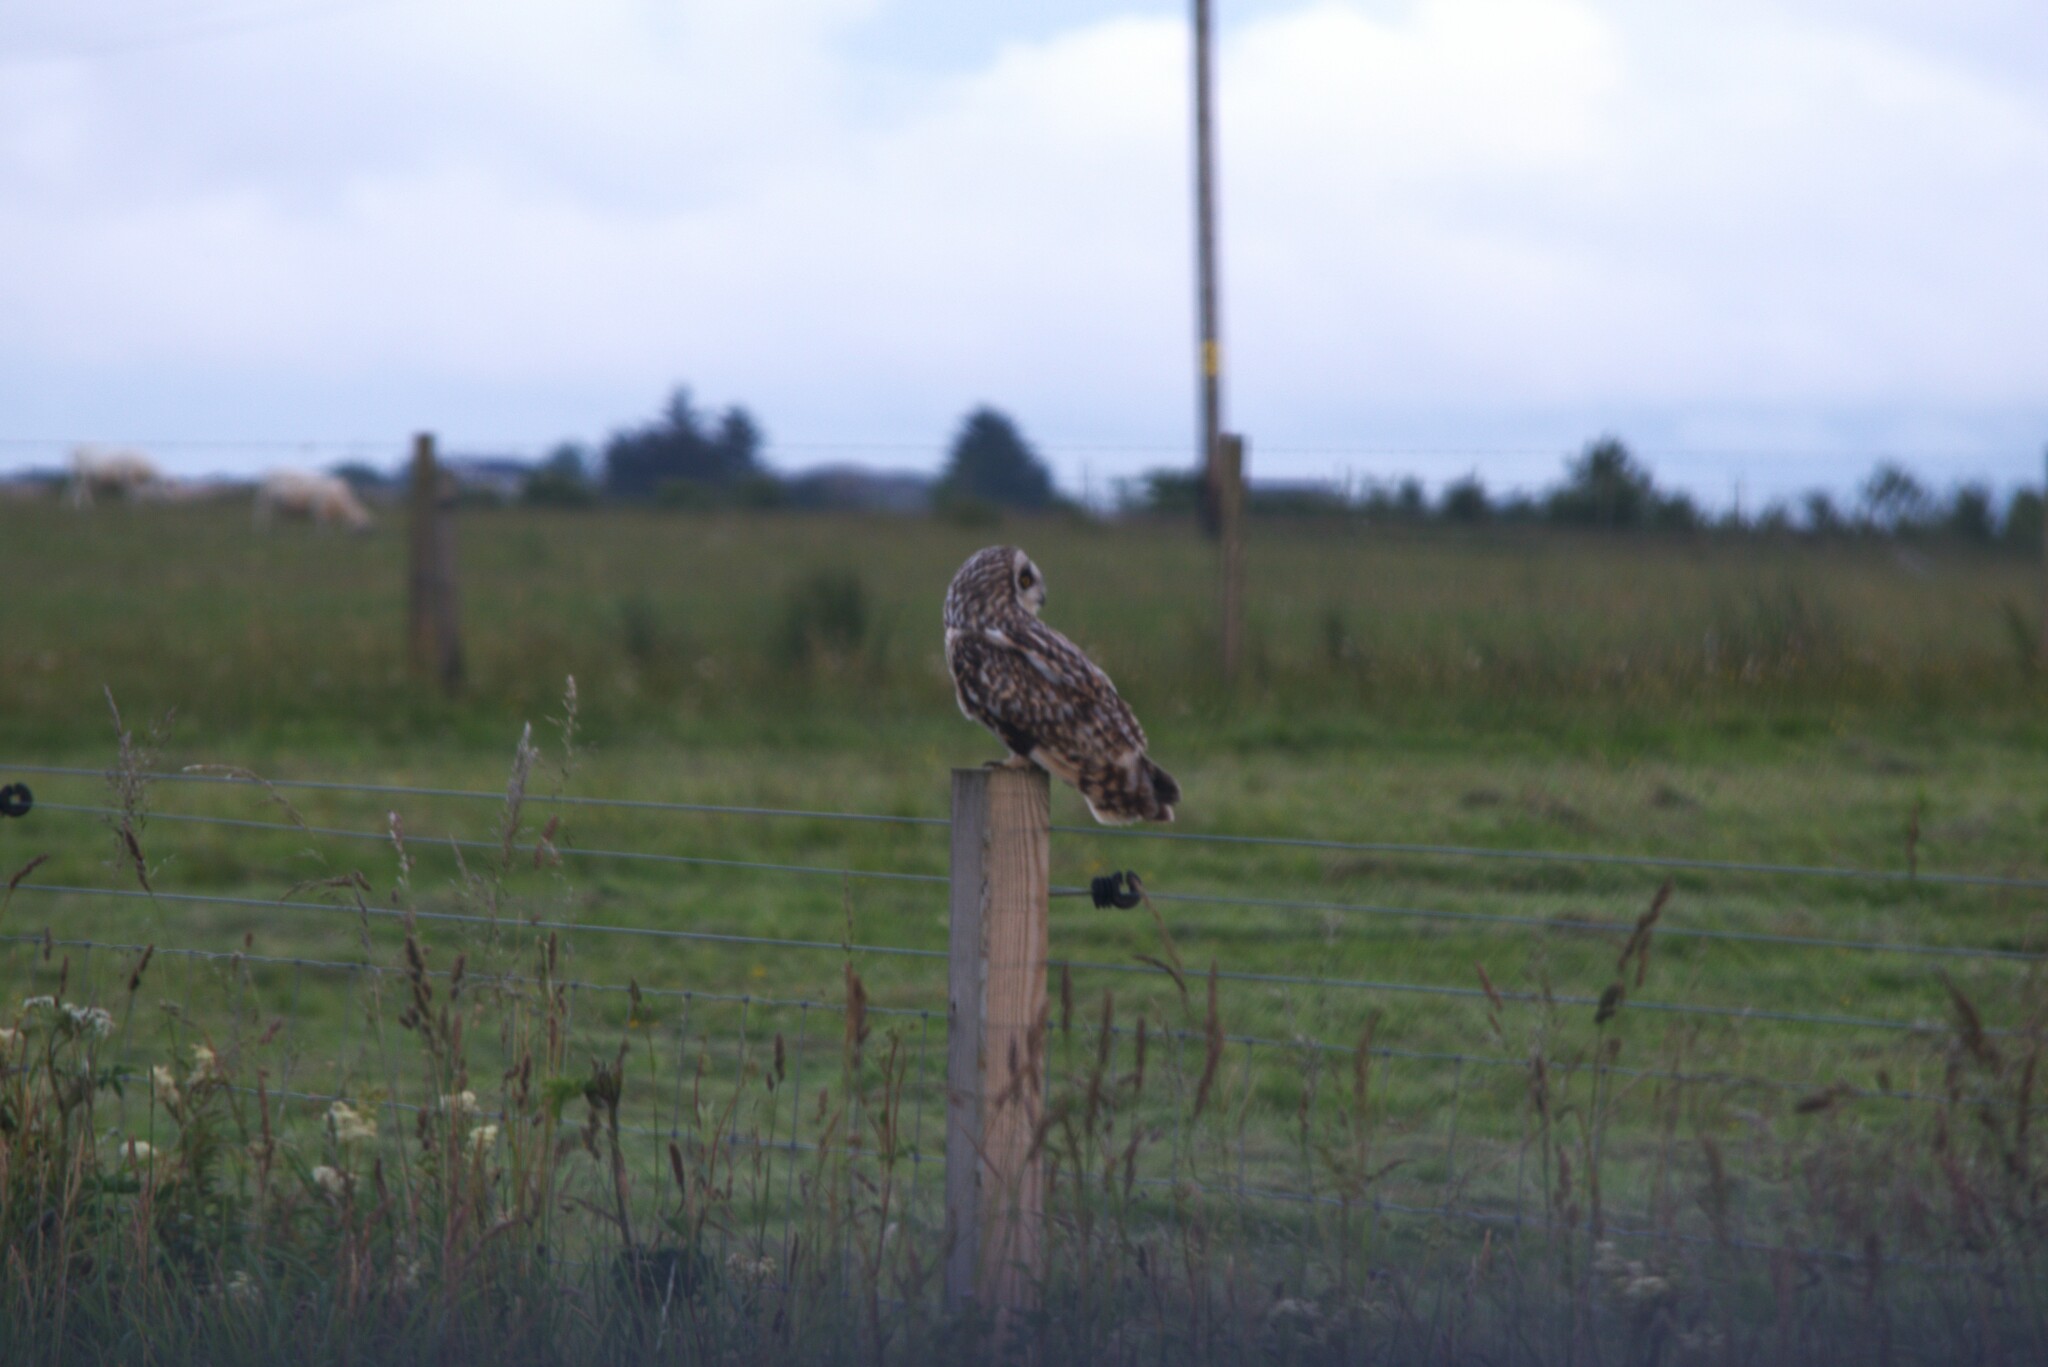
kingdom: Animalia
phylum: Chordata
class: Aves
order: Strigiformes
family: Strigidae
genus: Asio
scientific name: Asio flammeus
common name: Short-eared owl
